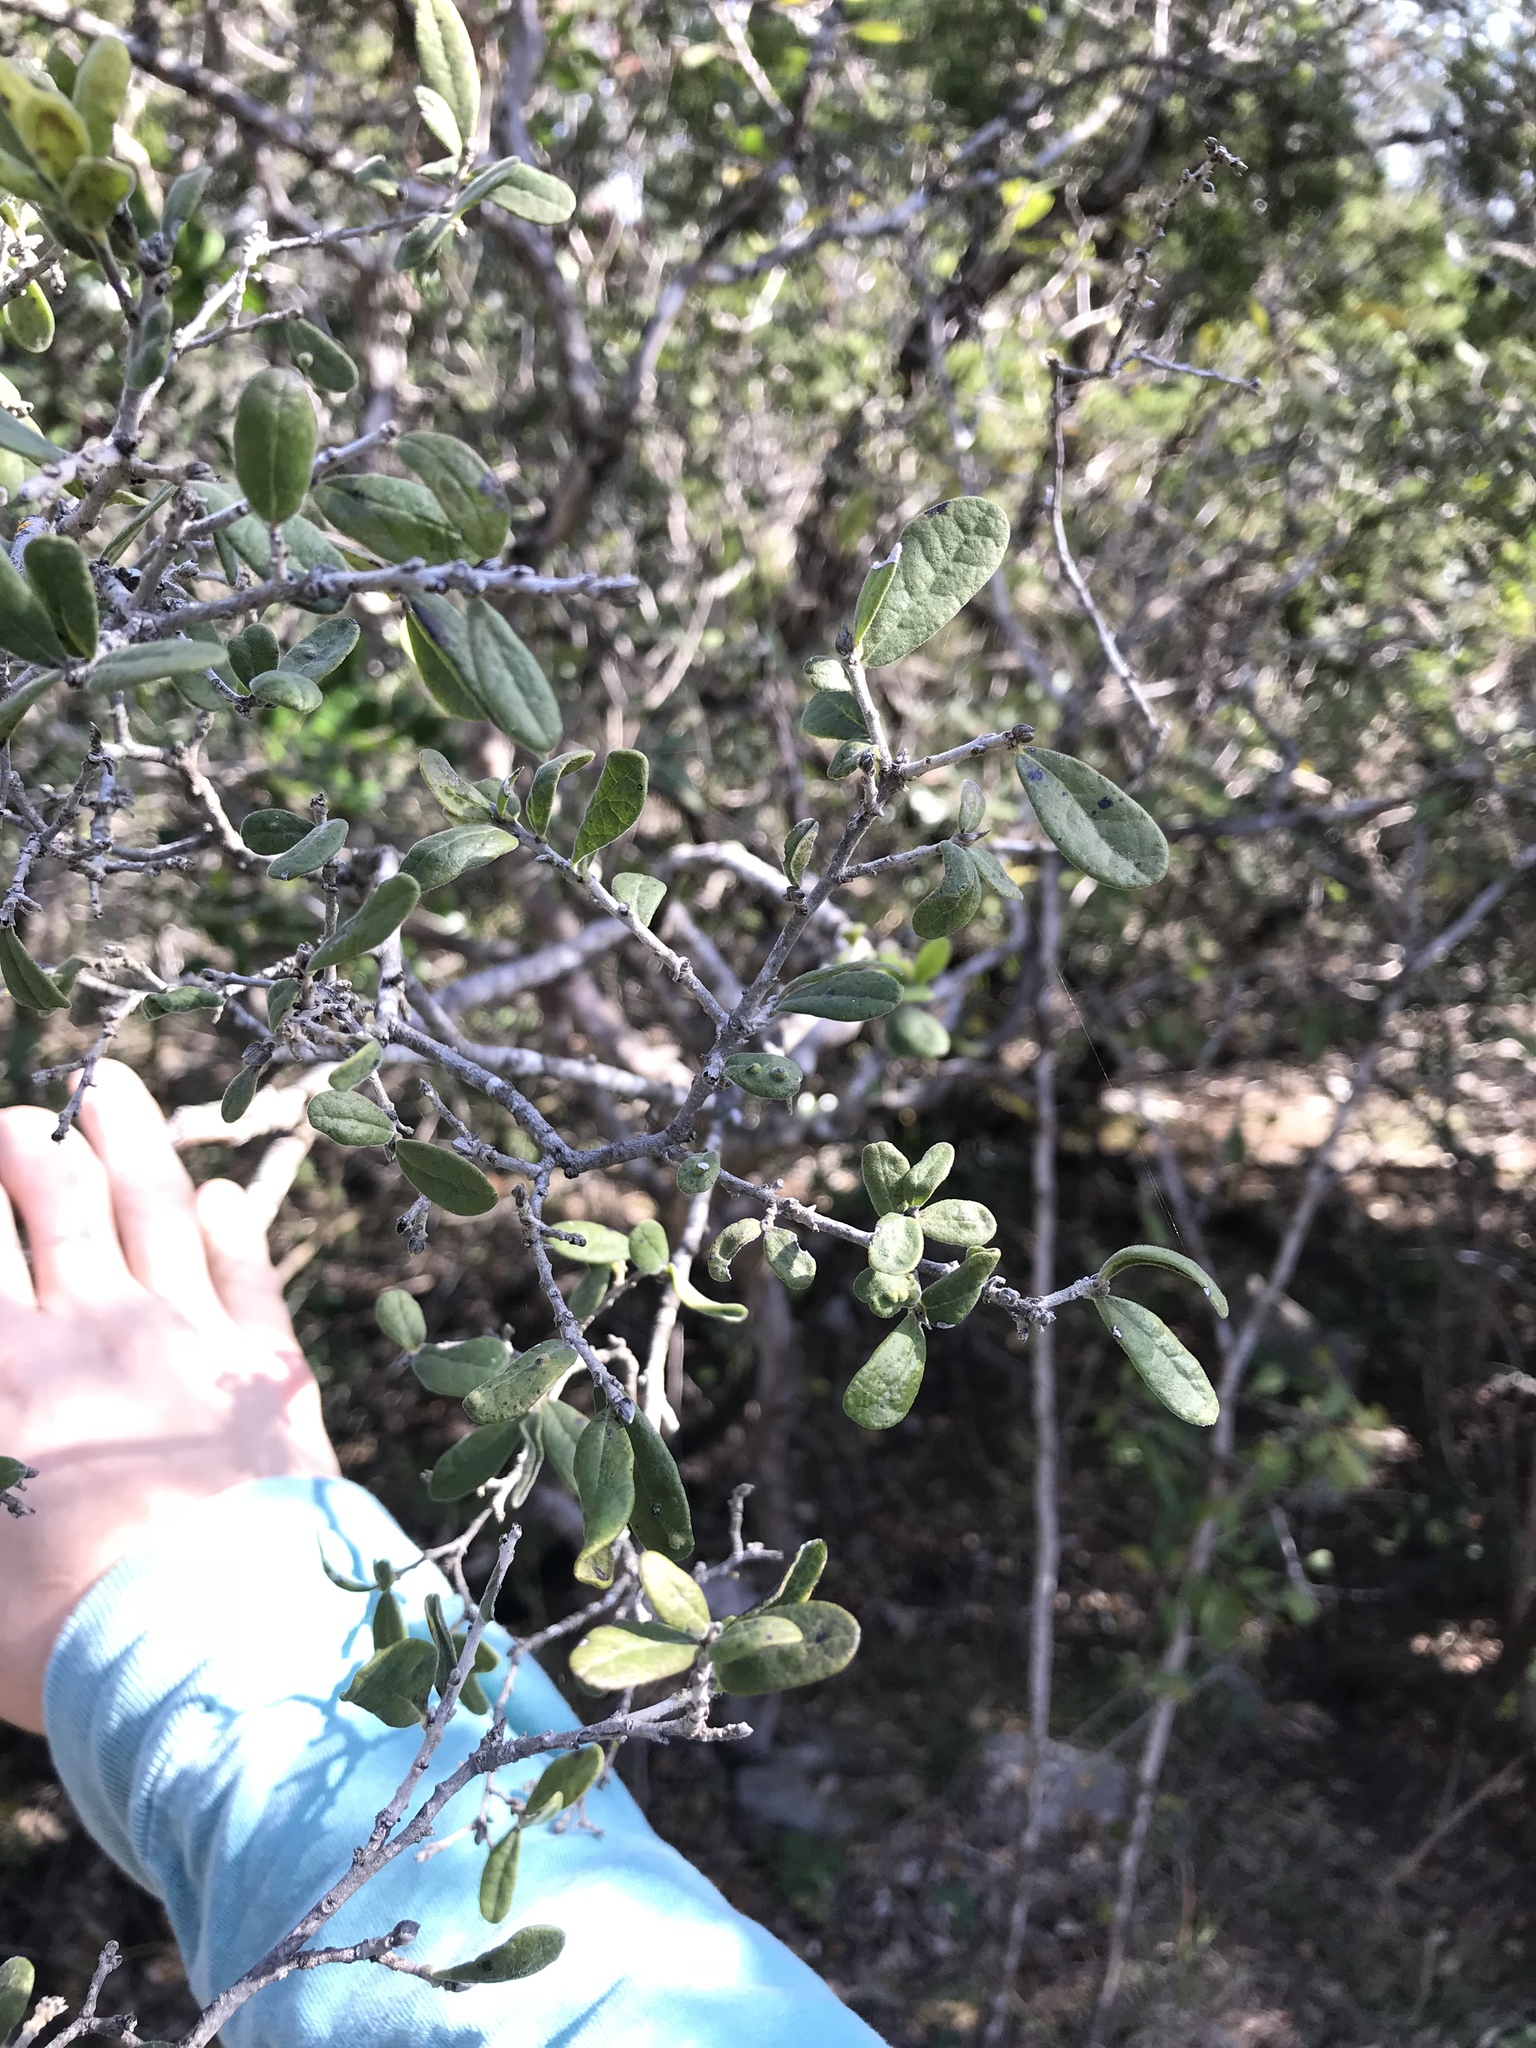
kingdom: Plantae
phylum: Tracheophyta
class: Magnoliopsida
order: Ericales
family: Ebenaceae
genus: Diospyros
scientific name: Diospyros texana
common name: Texas persimmon
